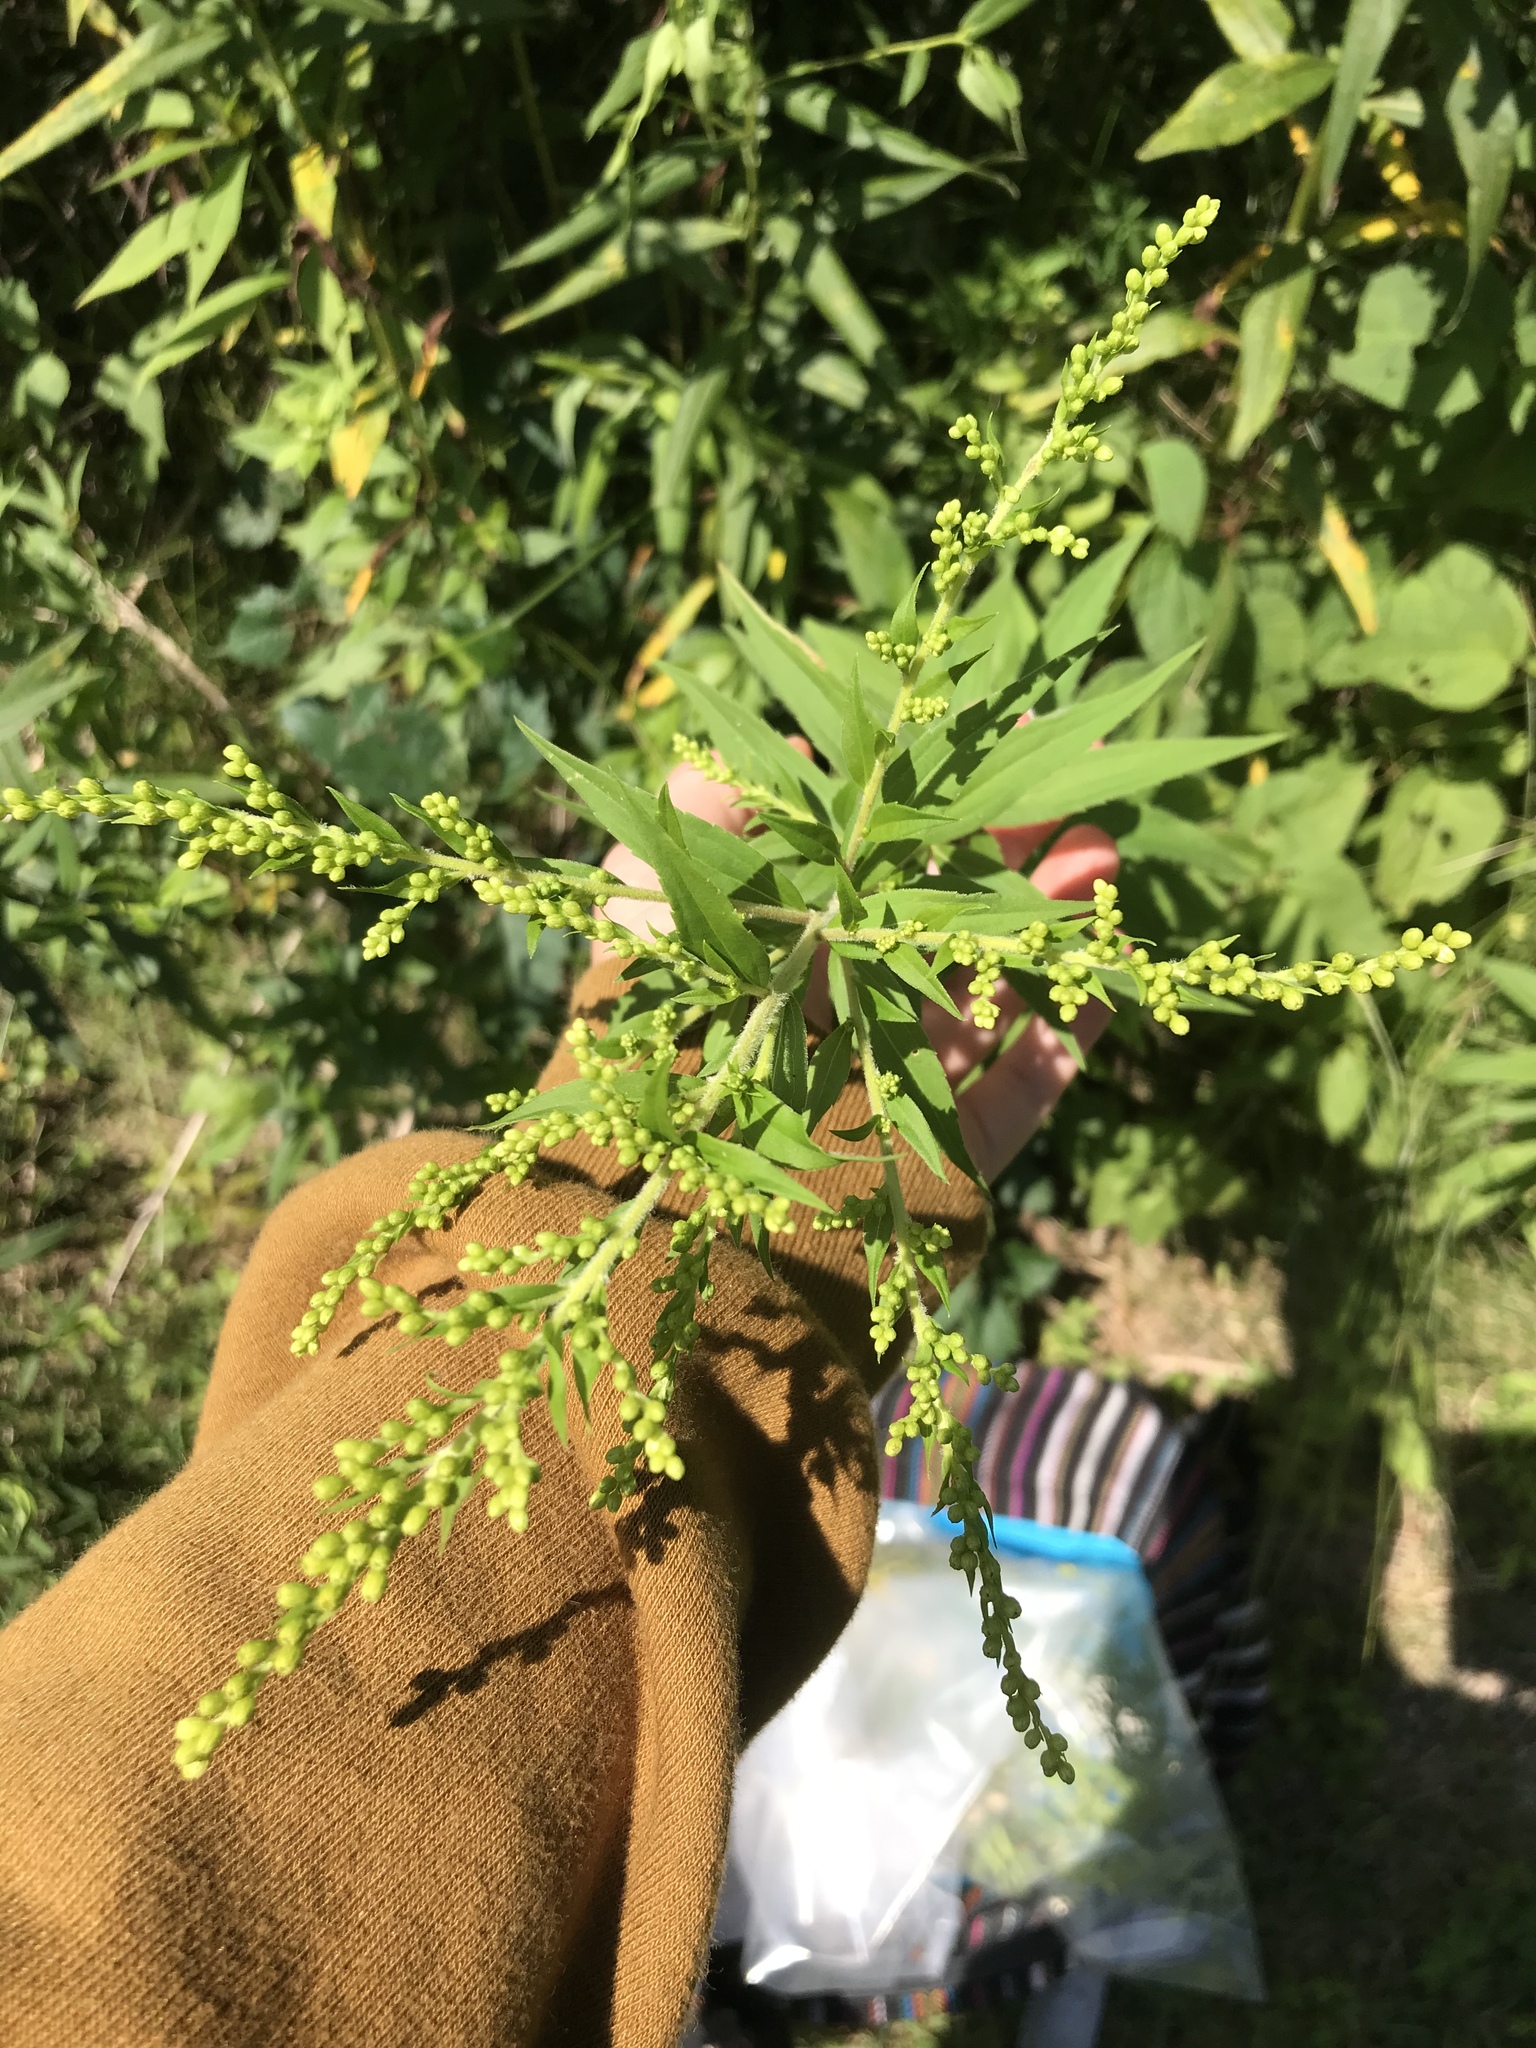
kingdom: Plantae
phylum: Tracheophyta
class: Magnoliopsida
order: Asterales
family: Asteraceae
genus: Solidago
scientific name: Solidago gigantea
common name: Giant goldenrod
